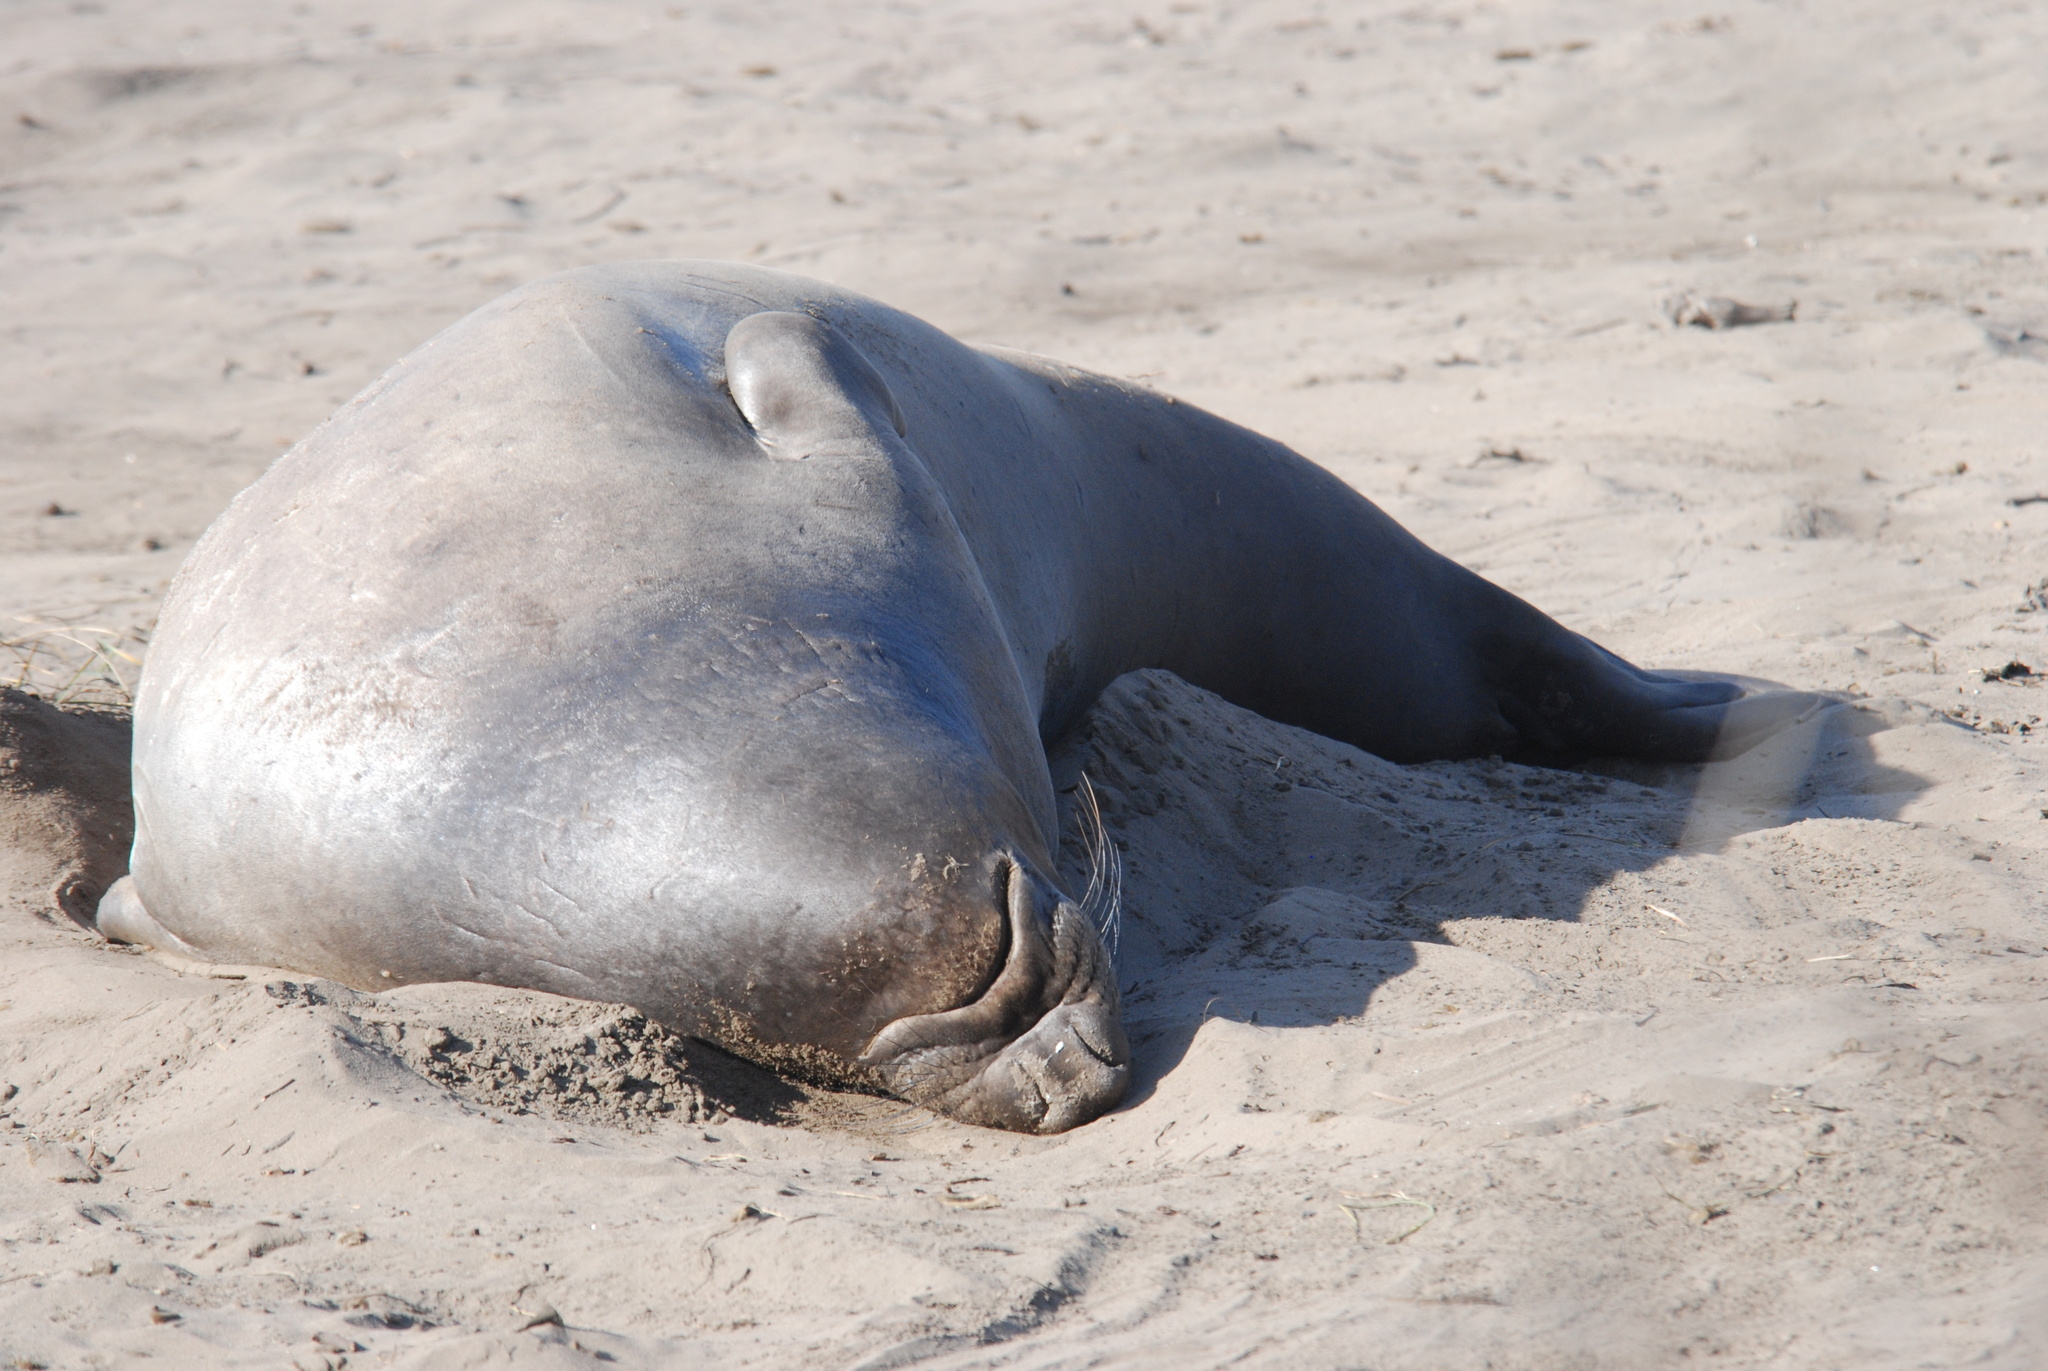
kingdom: Animalia
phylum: Chordata
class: Mammalia
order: Carnivora
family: Phocidae
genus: Mirounga
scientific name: Mirounga angustirostris
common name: Northern elephant seal
